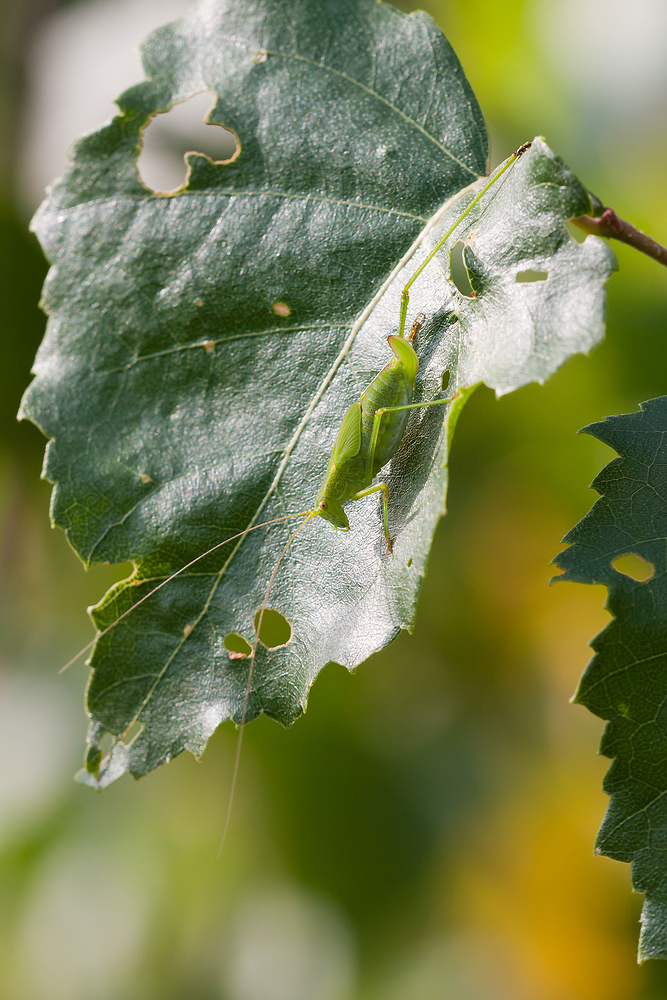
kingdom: Animalia
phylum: Arthropoda
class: Insecta
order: Orthoptera
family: Tettigoniidae
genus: Leptophyes
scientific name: Leptophyes punctatissima
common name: Speckled bush-cricket
